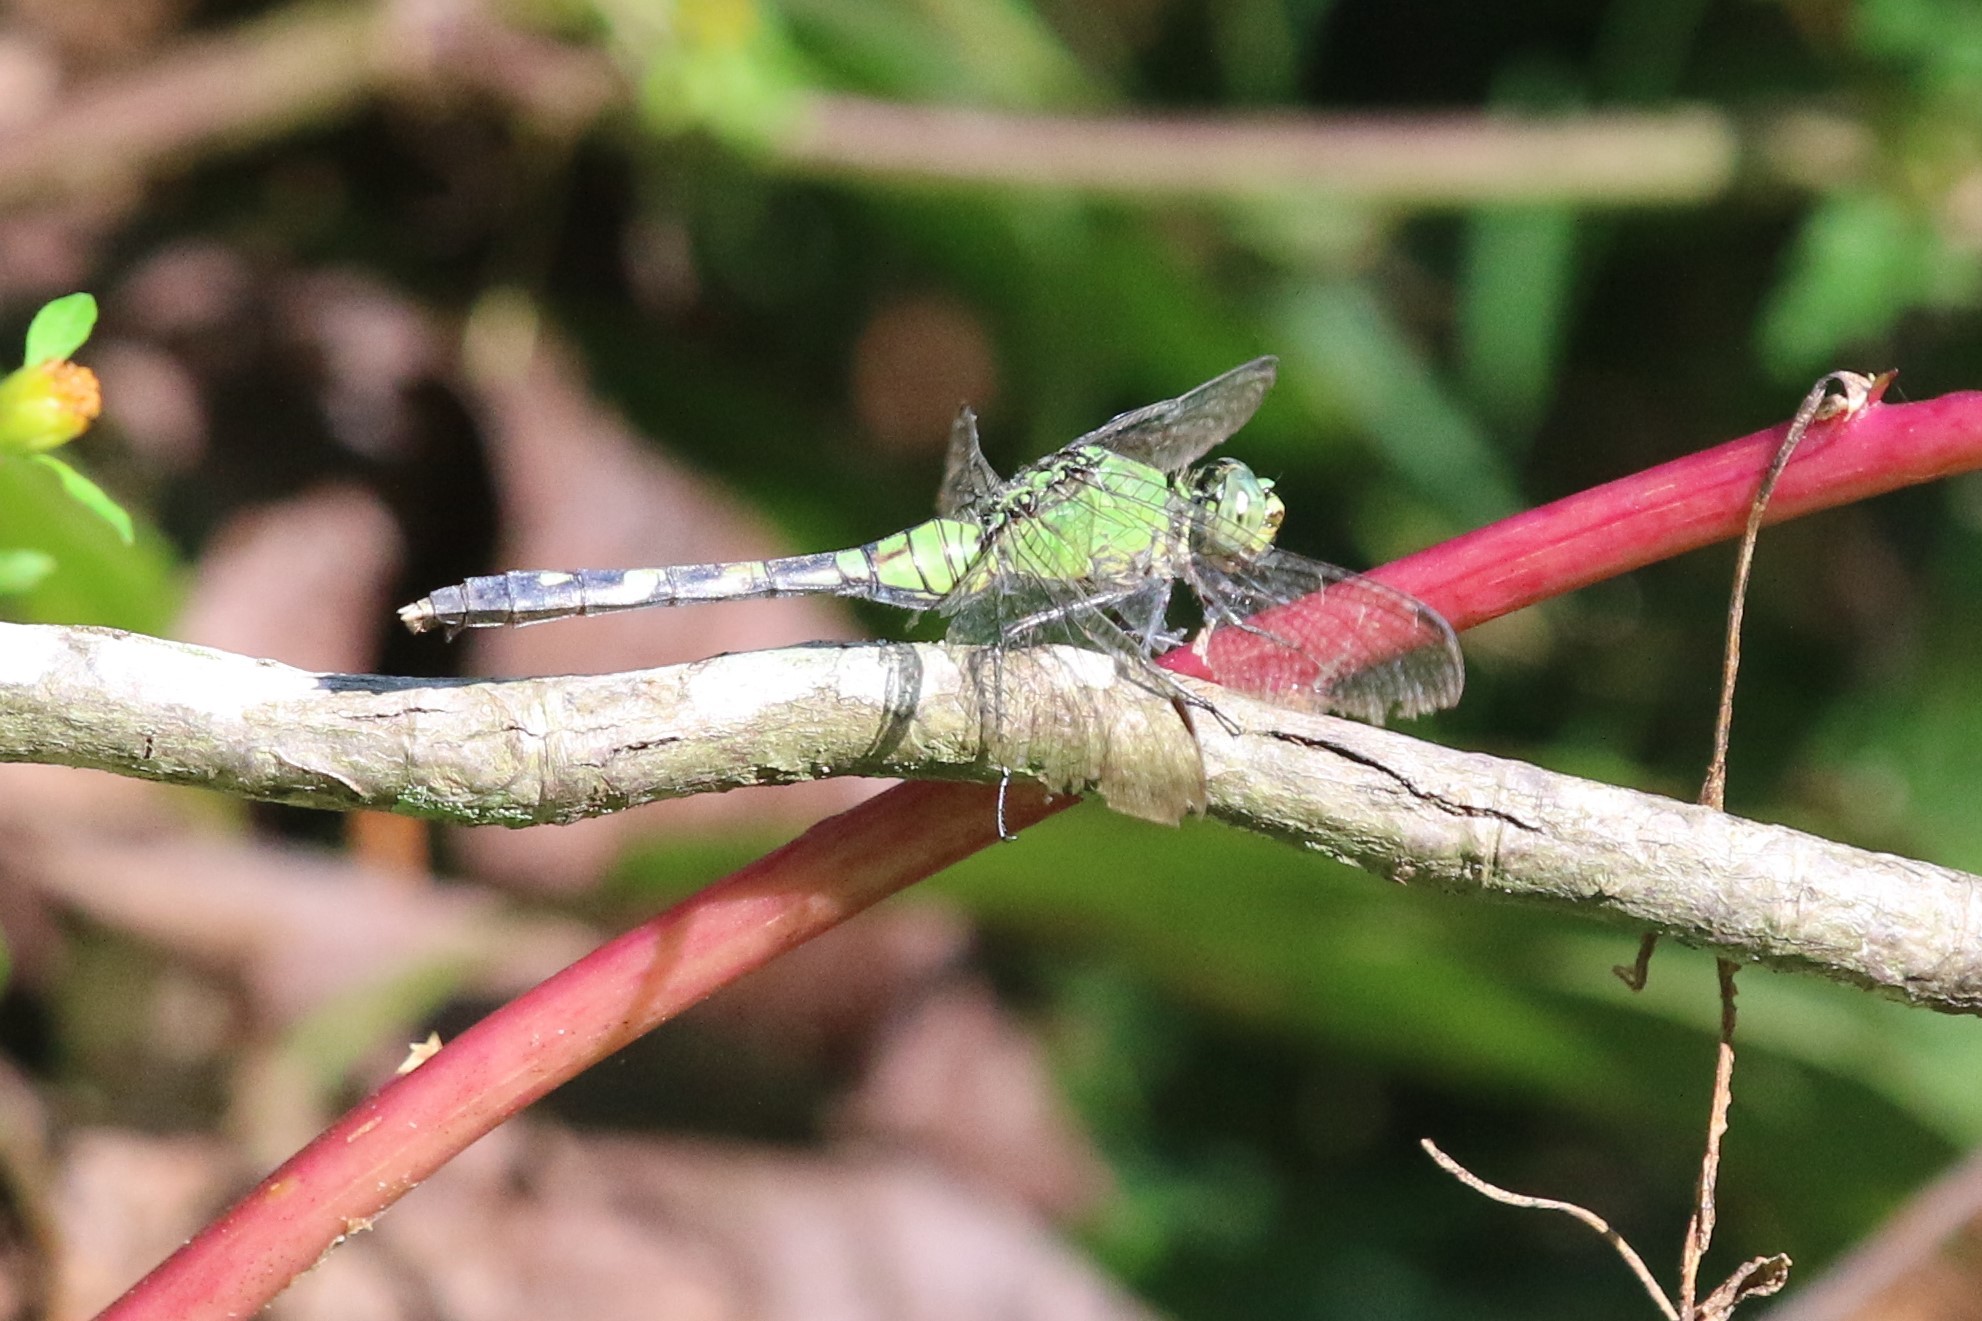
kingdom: Animalia
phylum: Arthropoda
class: Insecta
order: Odonata
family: Libellulidae
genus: Erythemis
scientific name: Erythemis simplicicollis
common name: Eastern pondhawk
